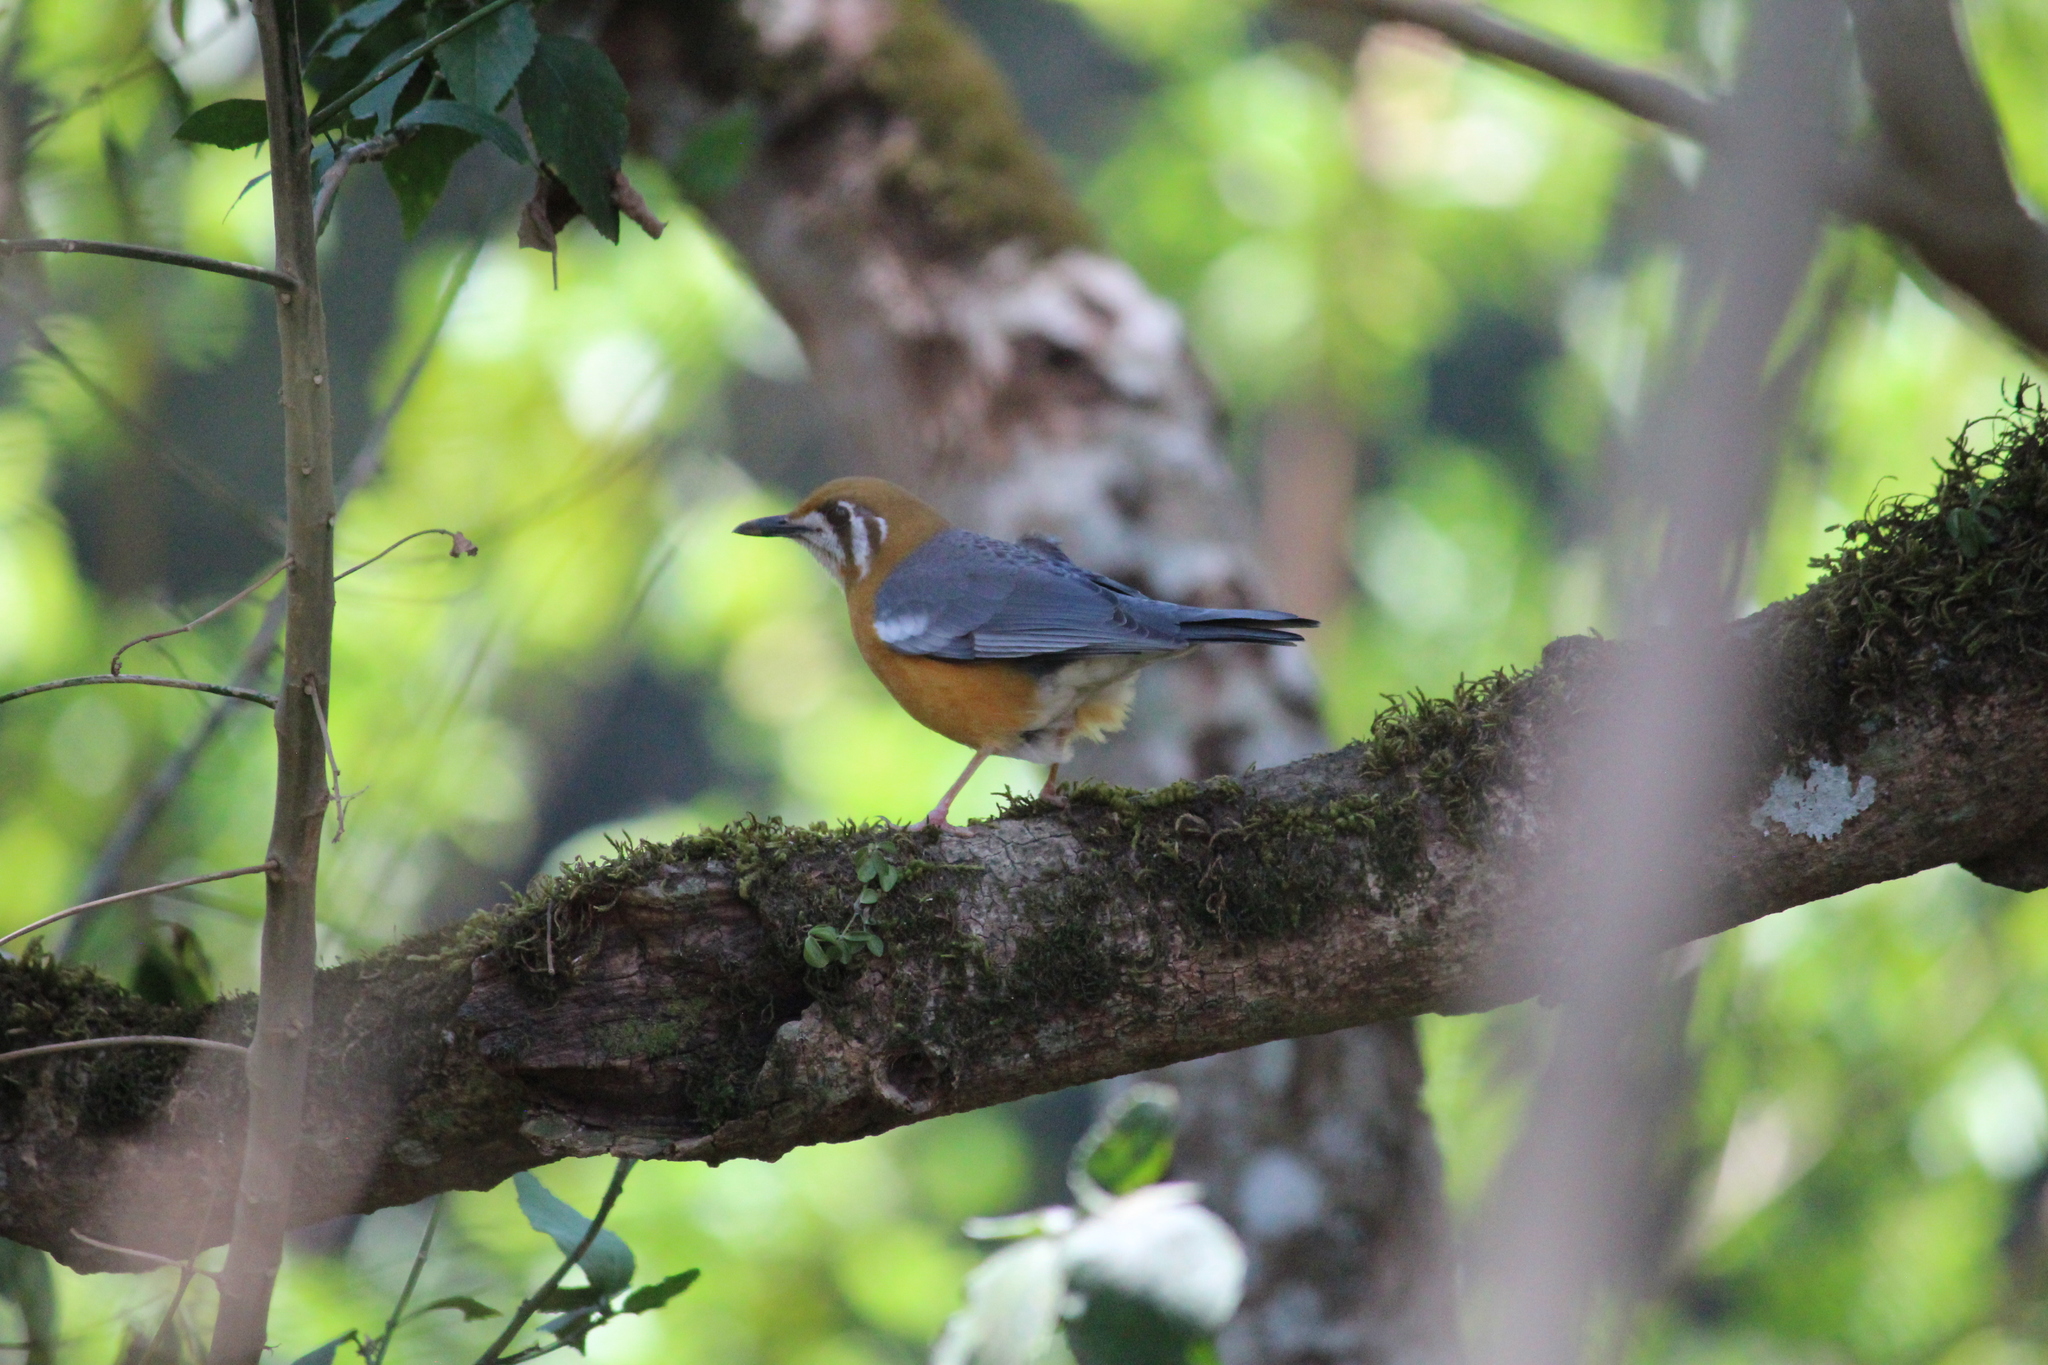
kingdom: Animalia
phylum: Chordata
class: Aves
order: Passeriformes
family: Turdidae
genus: Geokichla
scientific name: Geokichla citrina
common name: Orange-headed thrush
